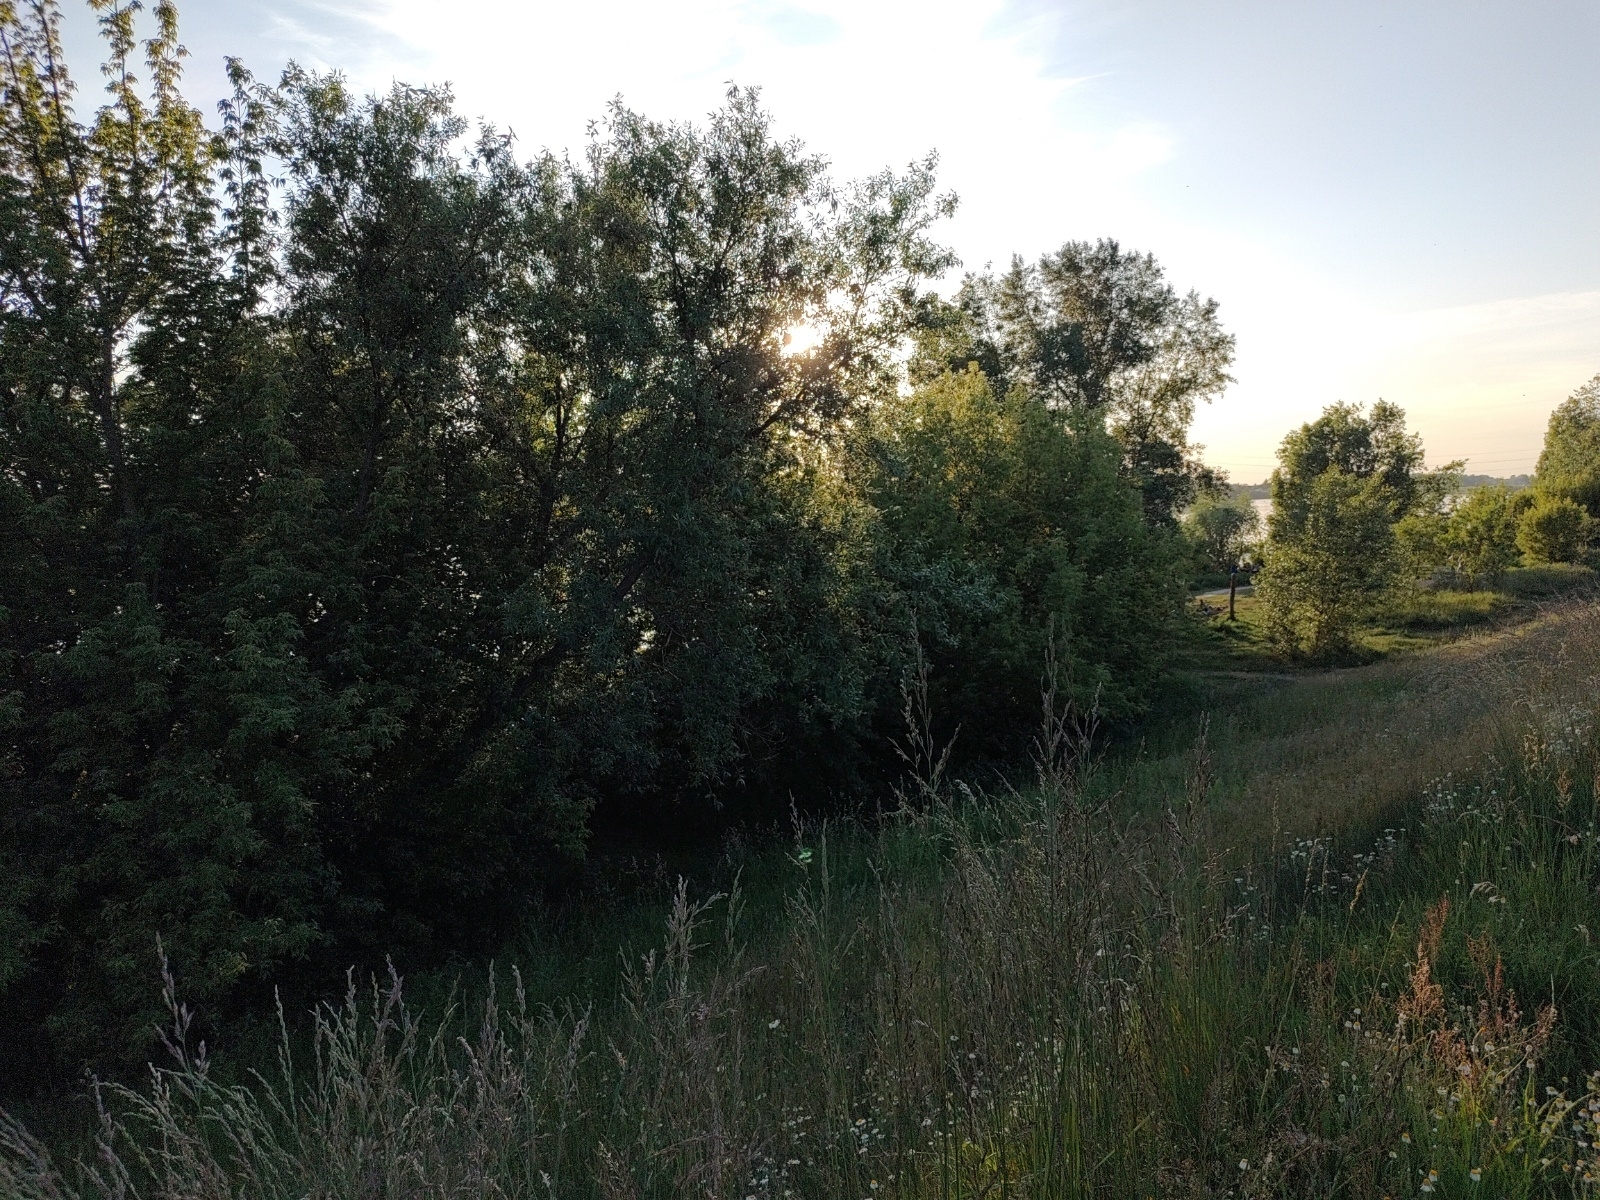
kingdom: Animalia
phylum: Chordata
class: Aves
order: Passeriformes
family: Emberizidae
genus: Emberiza
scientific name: Emberiza citrinella
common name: Yellowhammer
